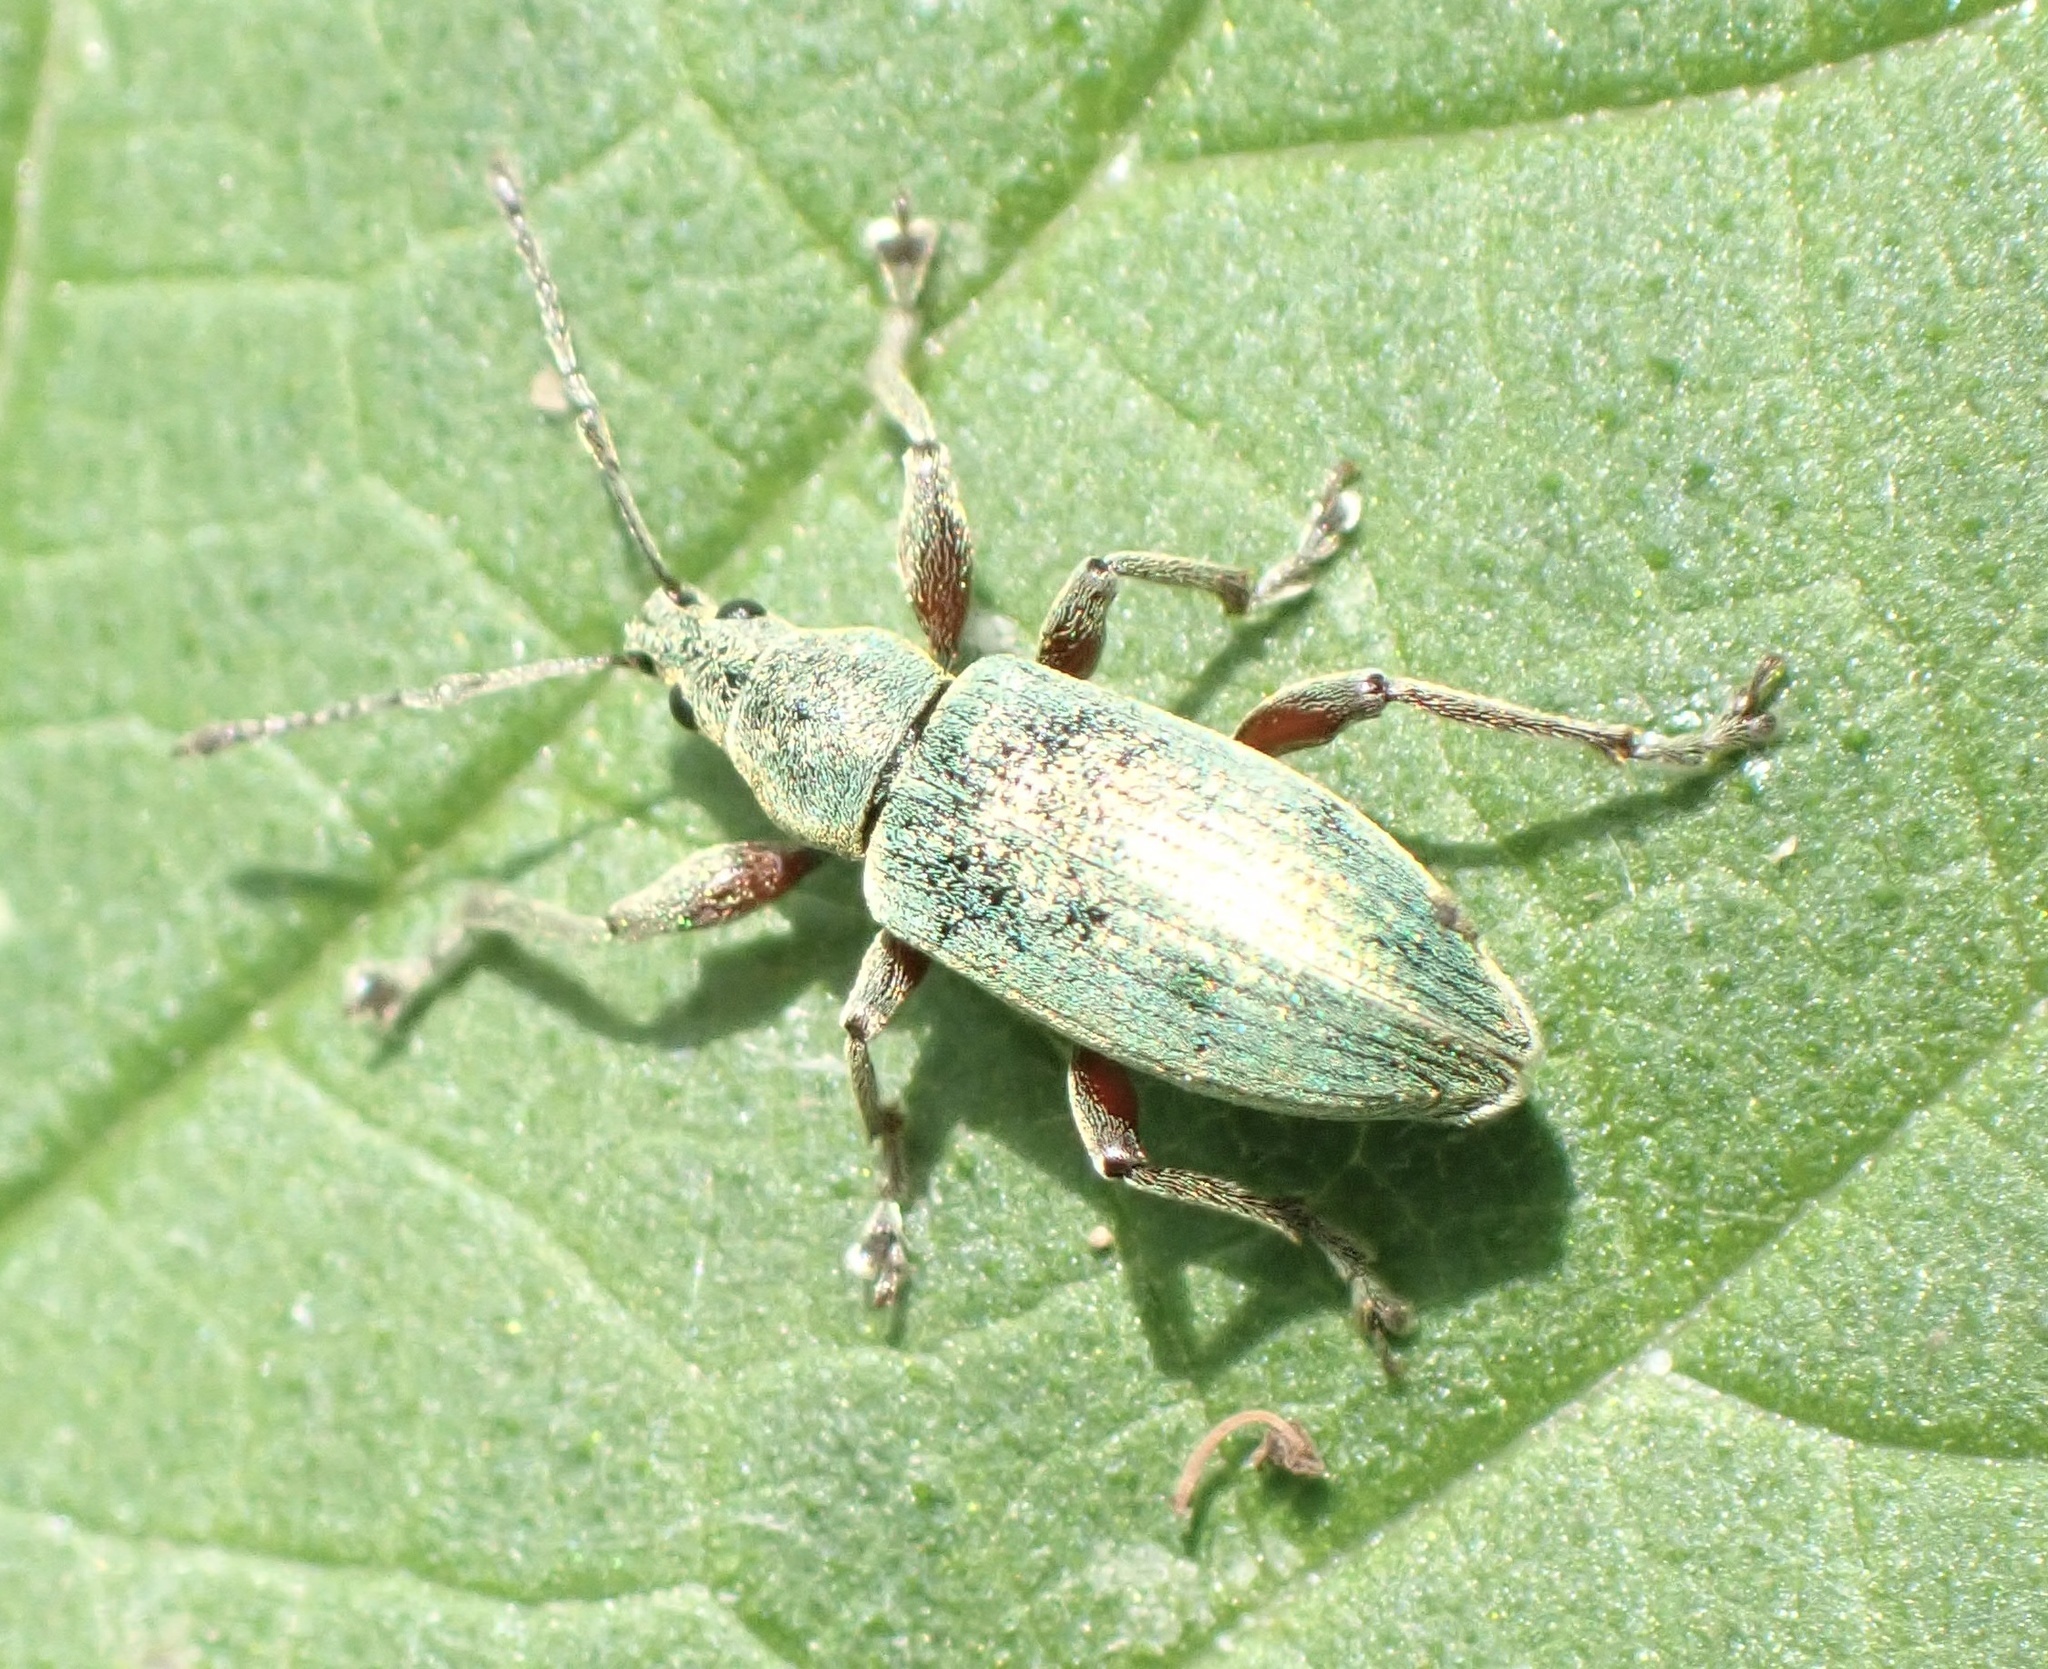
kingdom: Animalia
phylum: Arthropoda
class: Insecta
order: Coleoptera
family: Curculionidae
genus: Phyllobius
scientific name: Phyllobius pomaceus
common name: Green nettle weevil
